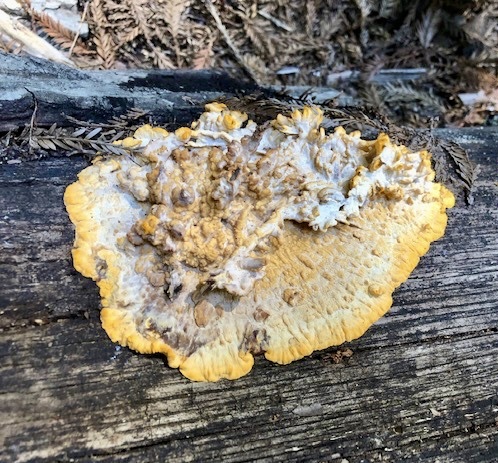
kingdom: Fungi
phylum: Basidiomycota
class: Agaricomycetes
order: Polyporales
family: Meruliaceae
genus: Phlebia
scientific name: Phlebia radiata
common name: Wrinkled crust
